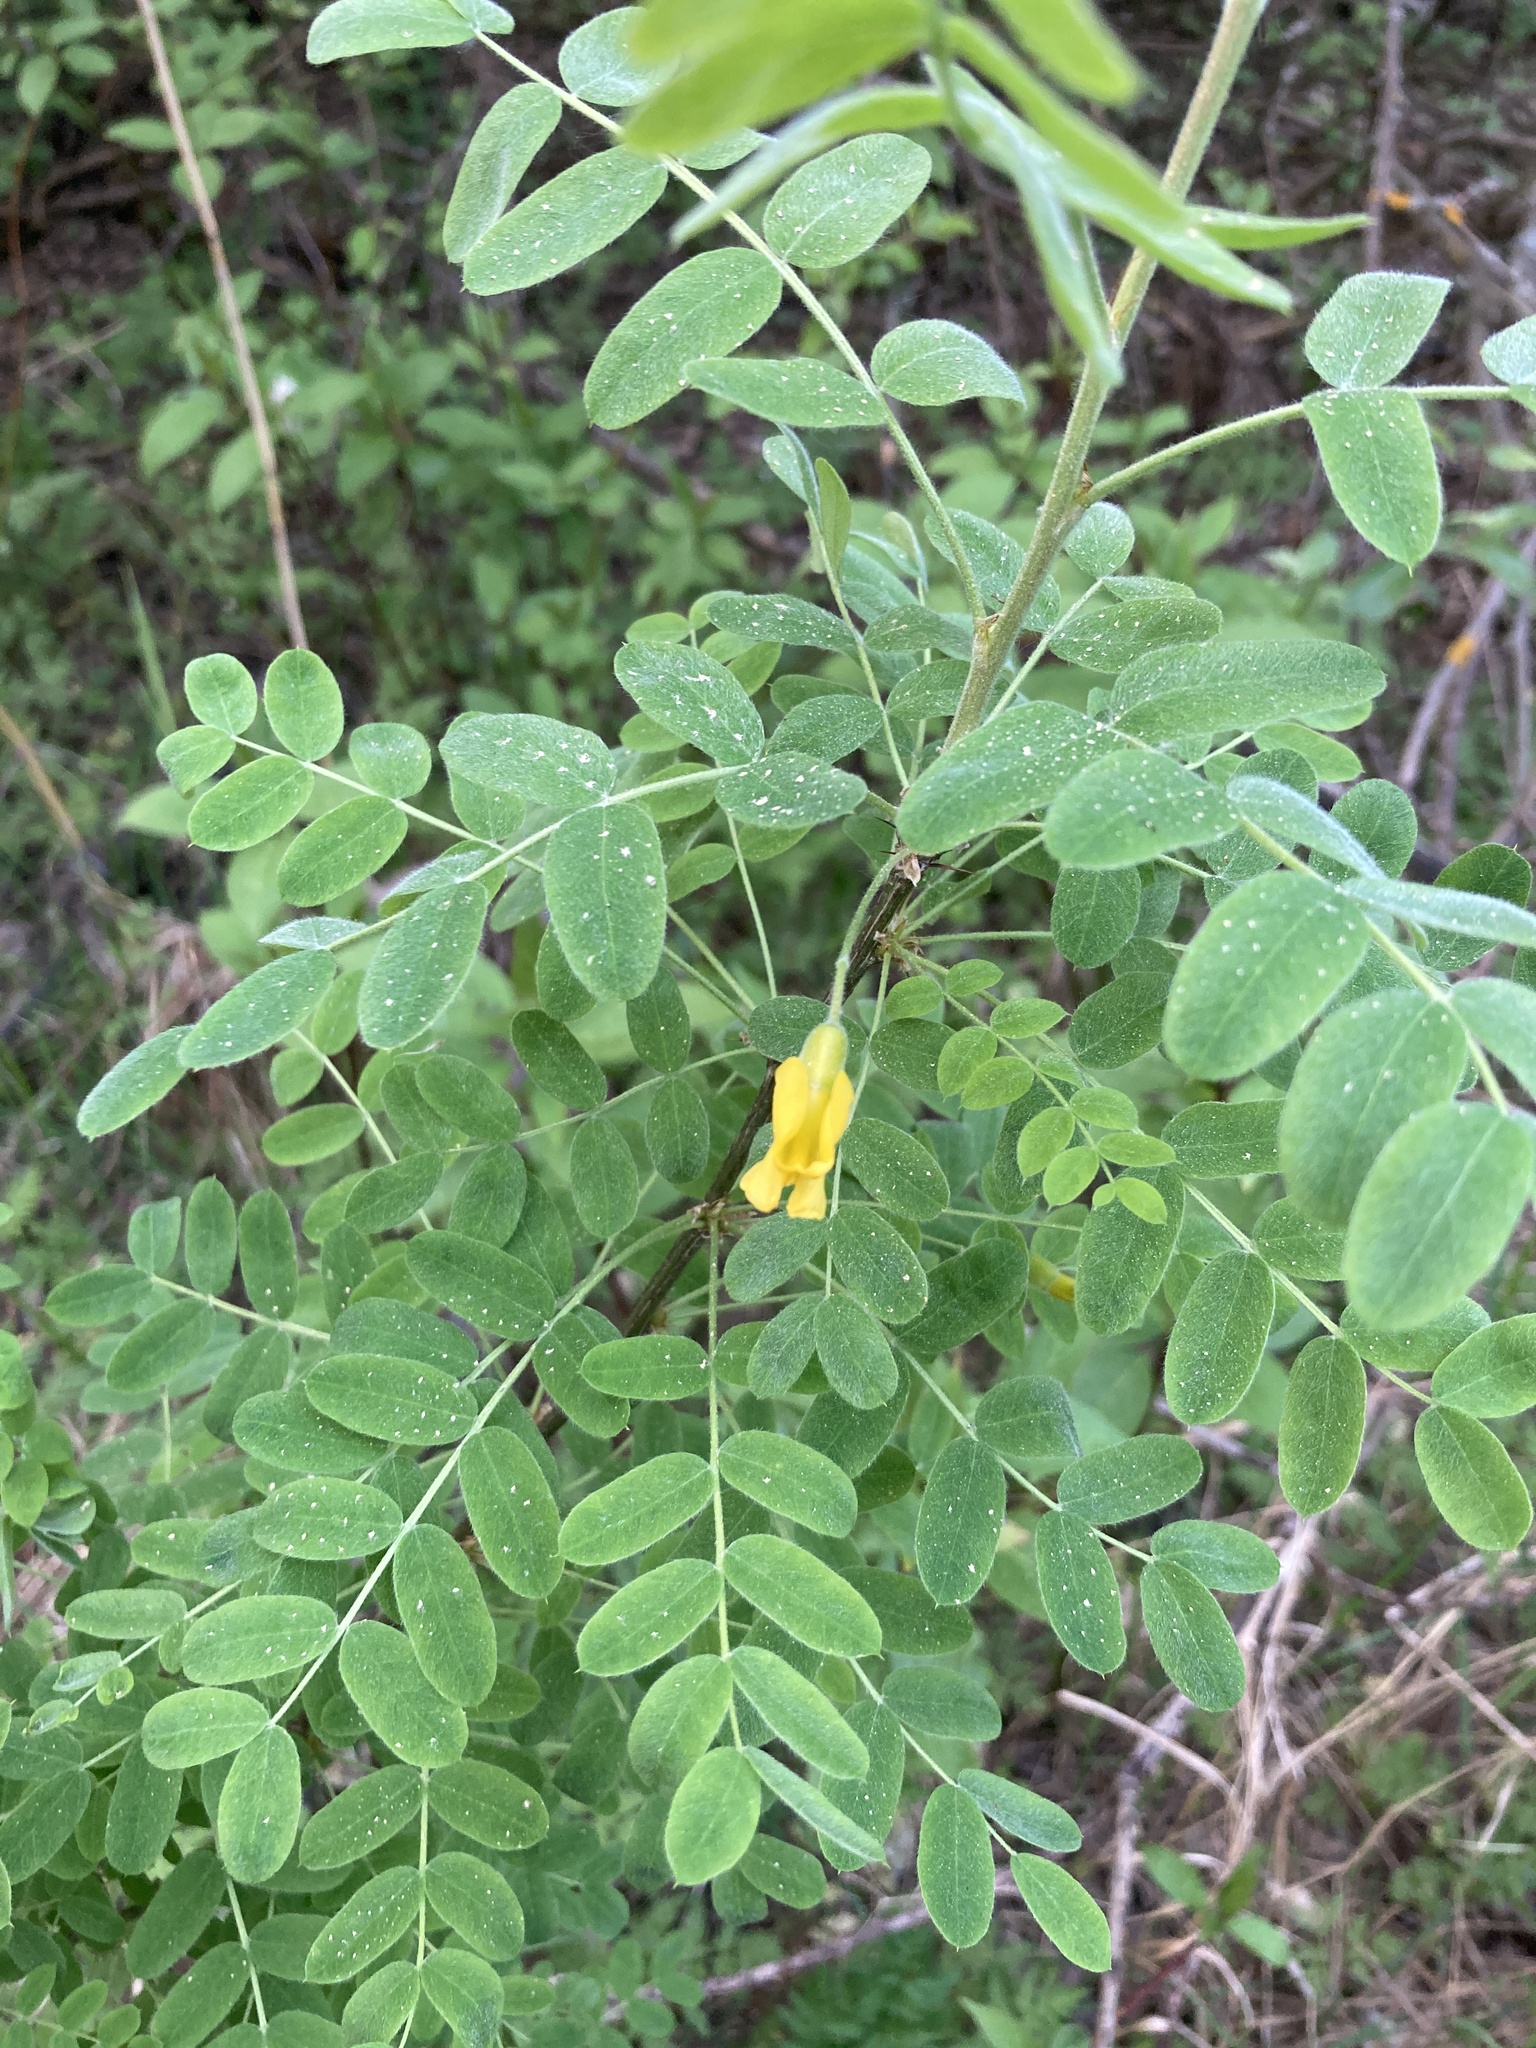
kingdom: Plantae
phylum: Tracheophyta
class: Magnoliopsida
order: Fabales
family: Fabaceae
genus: Caragana
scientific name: Caragana arborescens
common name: Siberian peashrub
